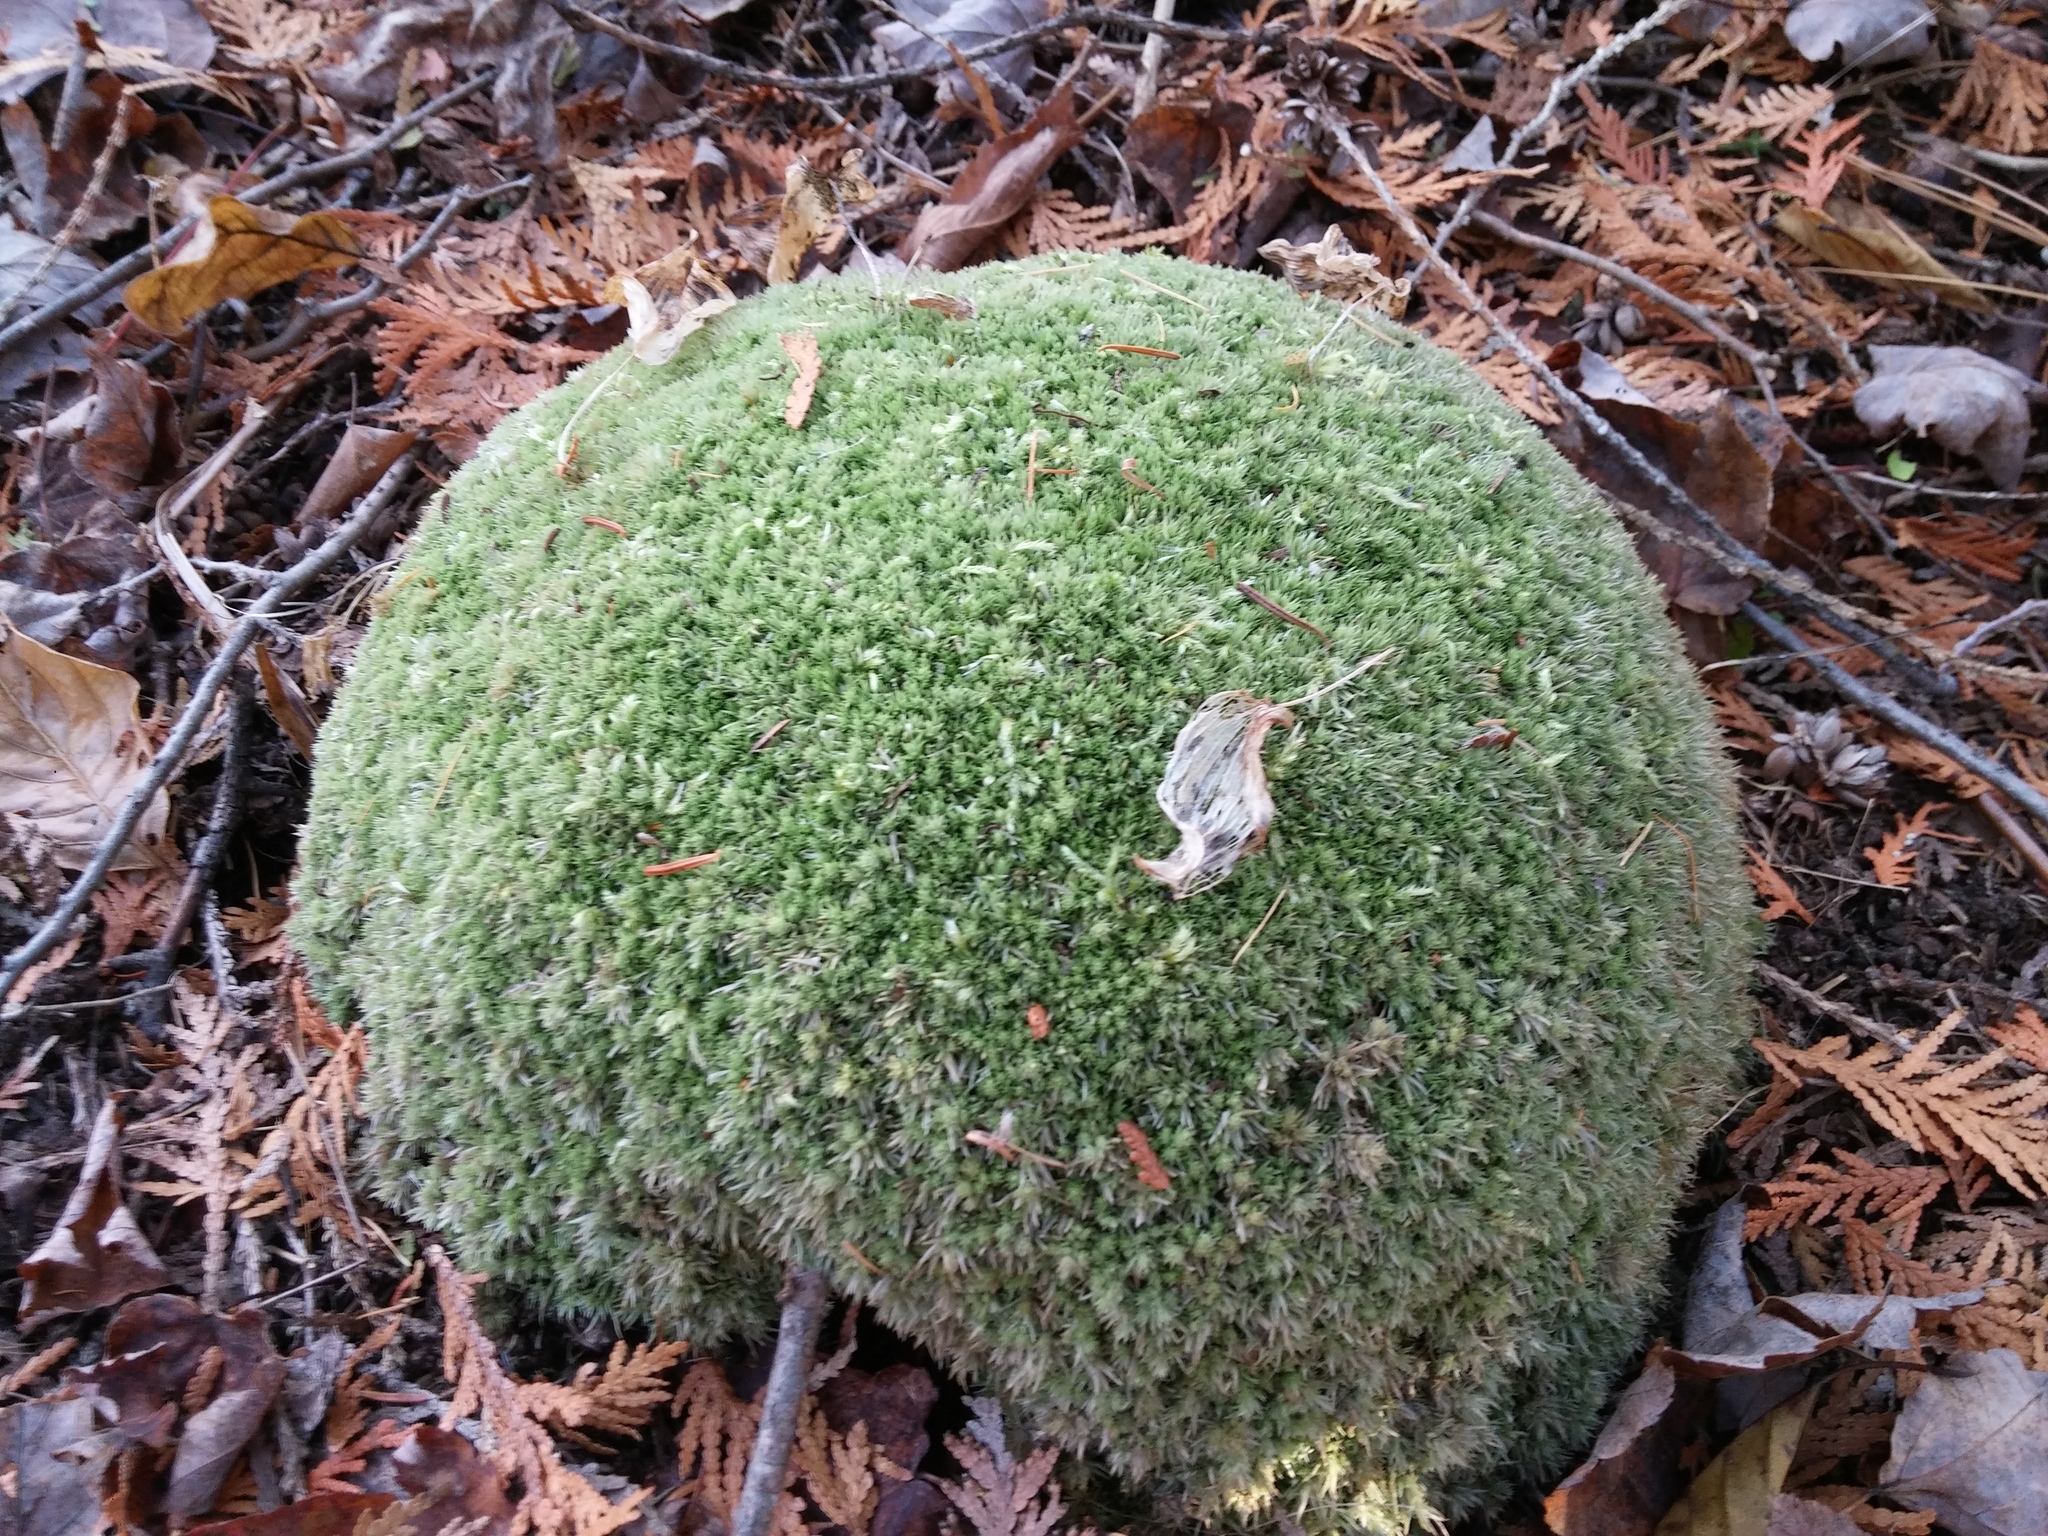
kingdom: Plantae
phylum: Bryophyta
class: Bryopsida
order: Dicranales
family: Leucobryaceae
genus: Leucobryum
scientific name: Leucobryum glaucum
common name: Large white-moss
